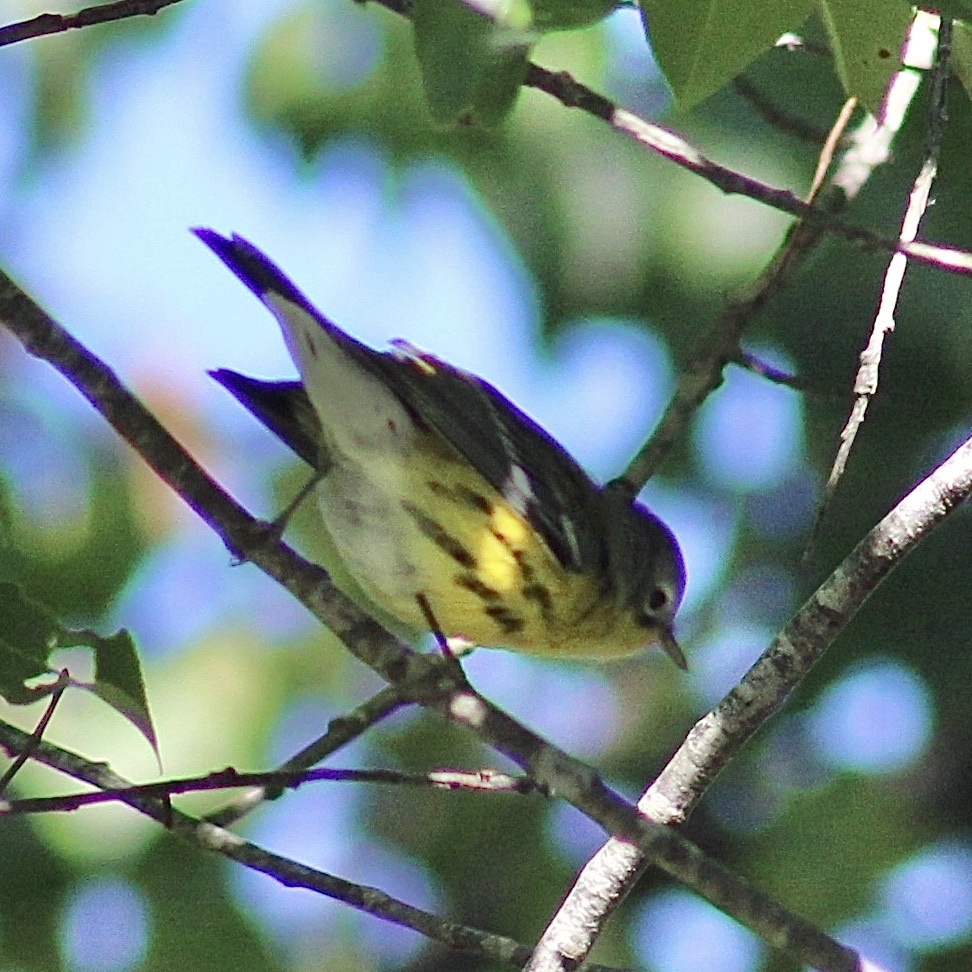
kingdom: Animalia
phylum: Chordata
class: Aves
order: Passeriformes
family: Parulidae
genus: Setophaga
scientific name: Setophaga magnolia
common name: Magnolia warbler
